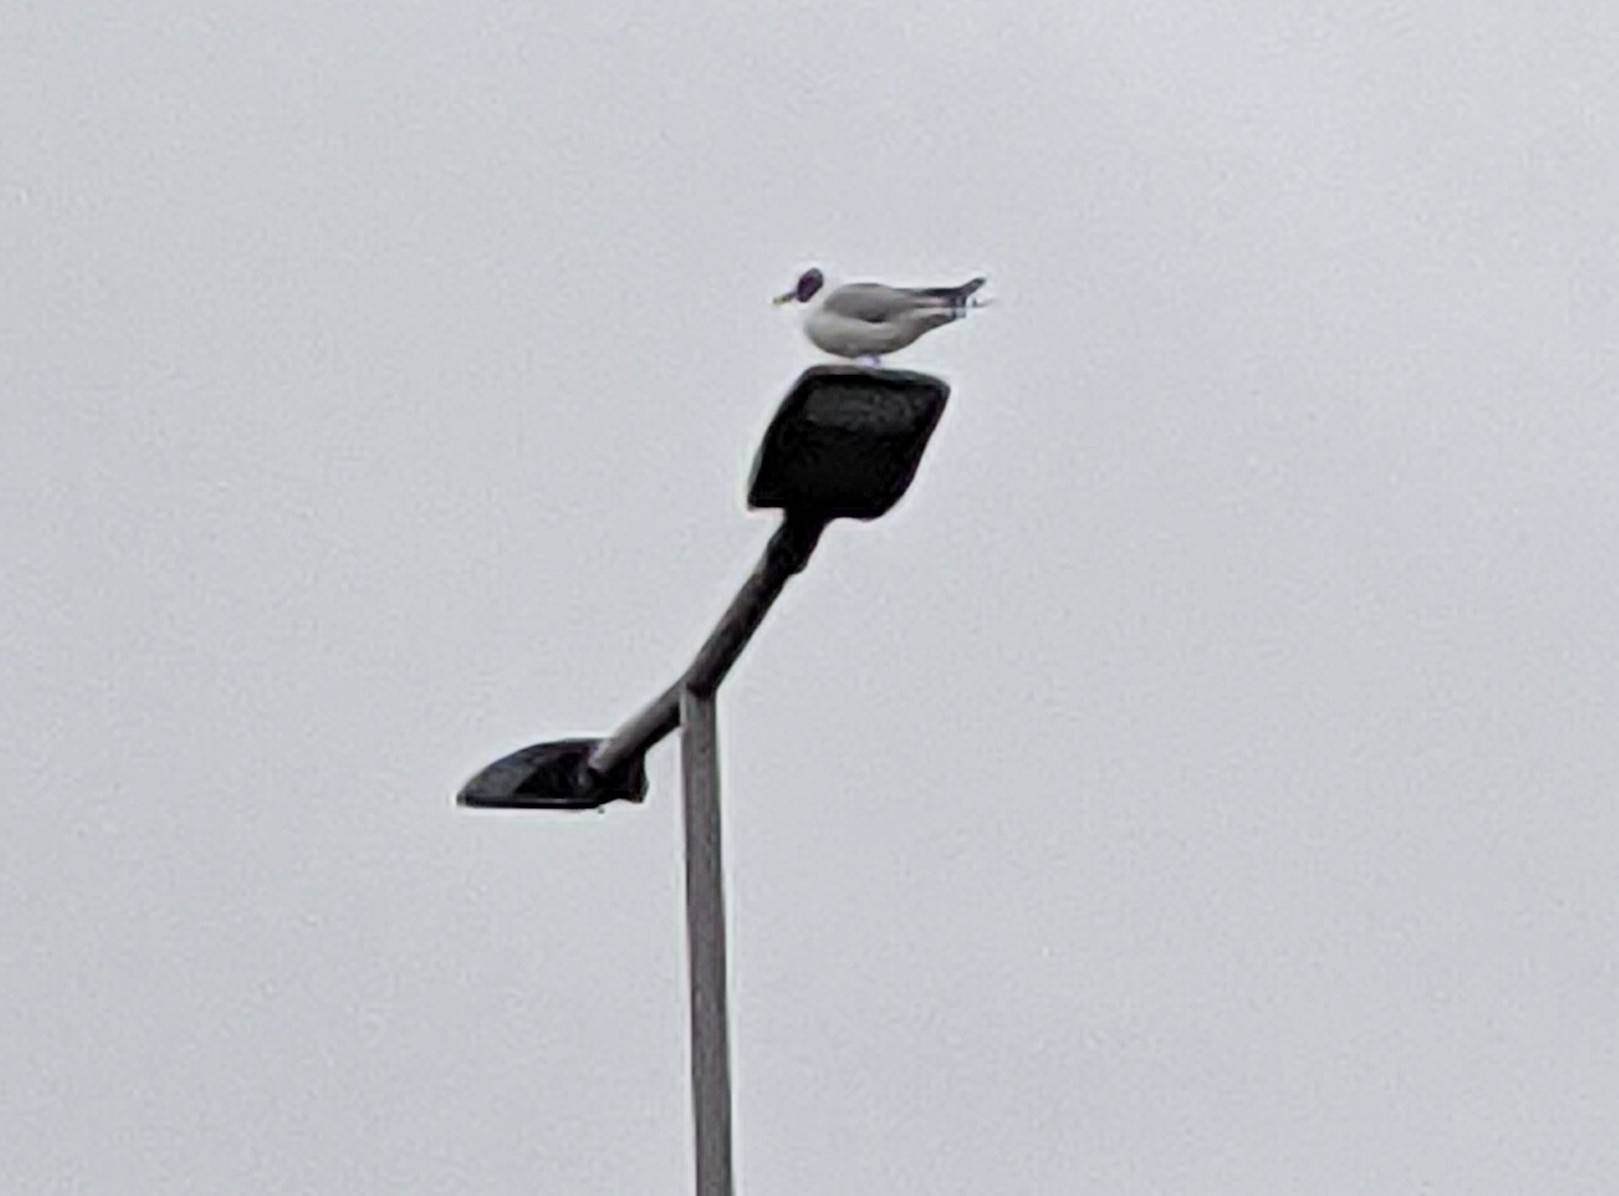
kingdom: Animalia
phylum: Chordata
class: Aves
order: Charadriiformes
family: Laridae
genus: Chroicocephalus
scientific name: Chroicocephalus ridibundus
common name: Black-headed gull
